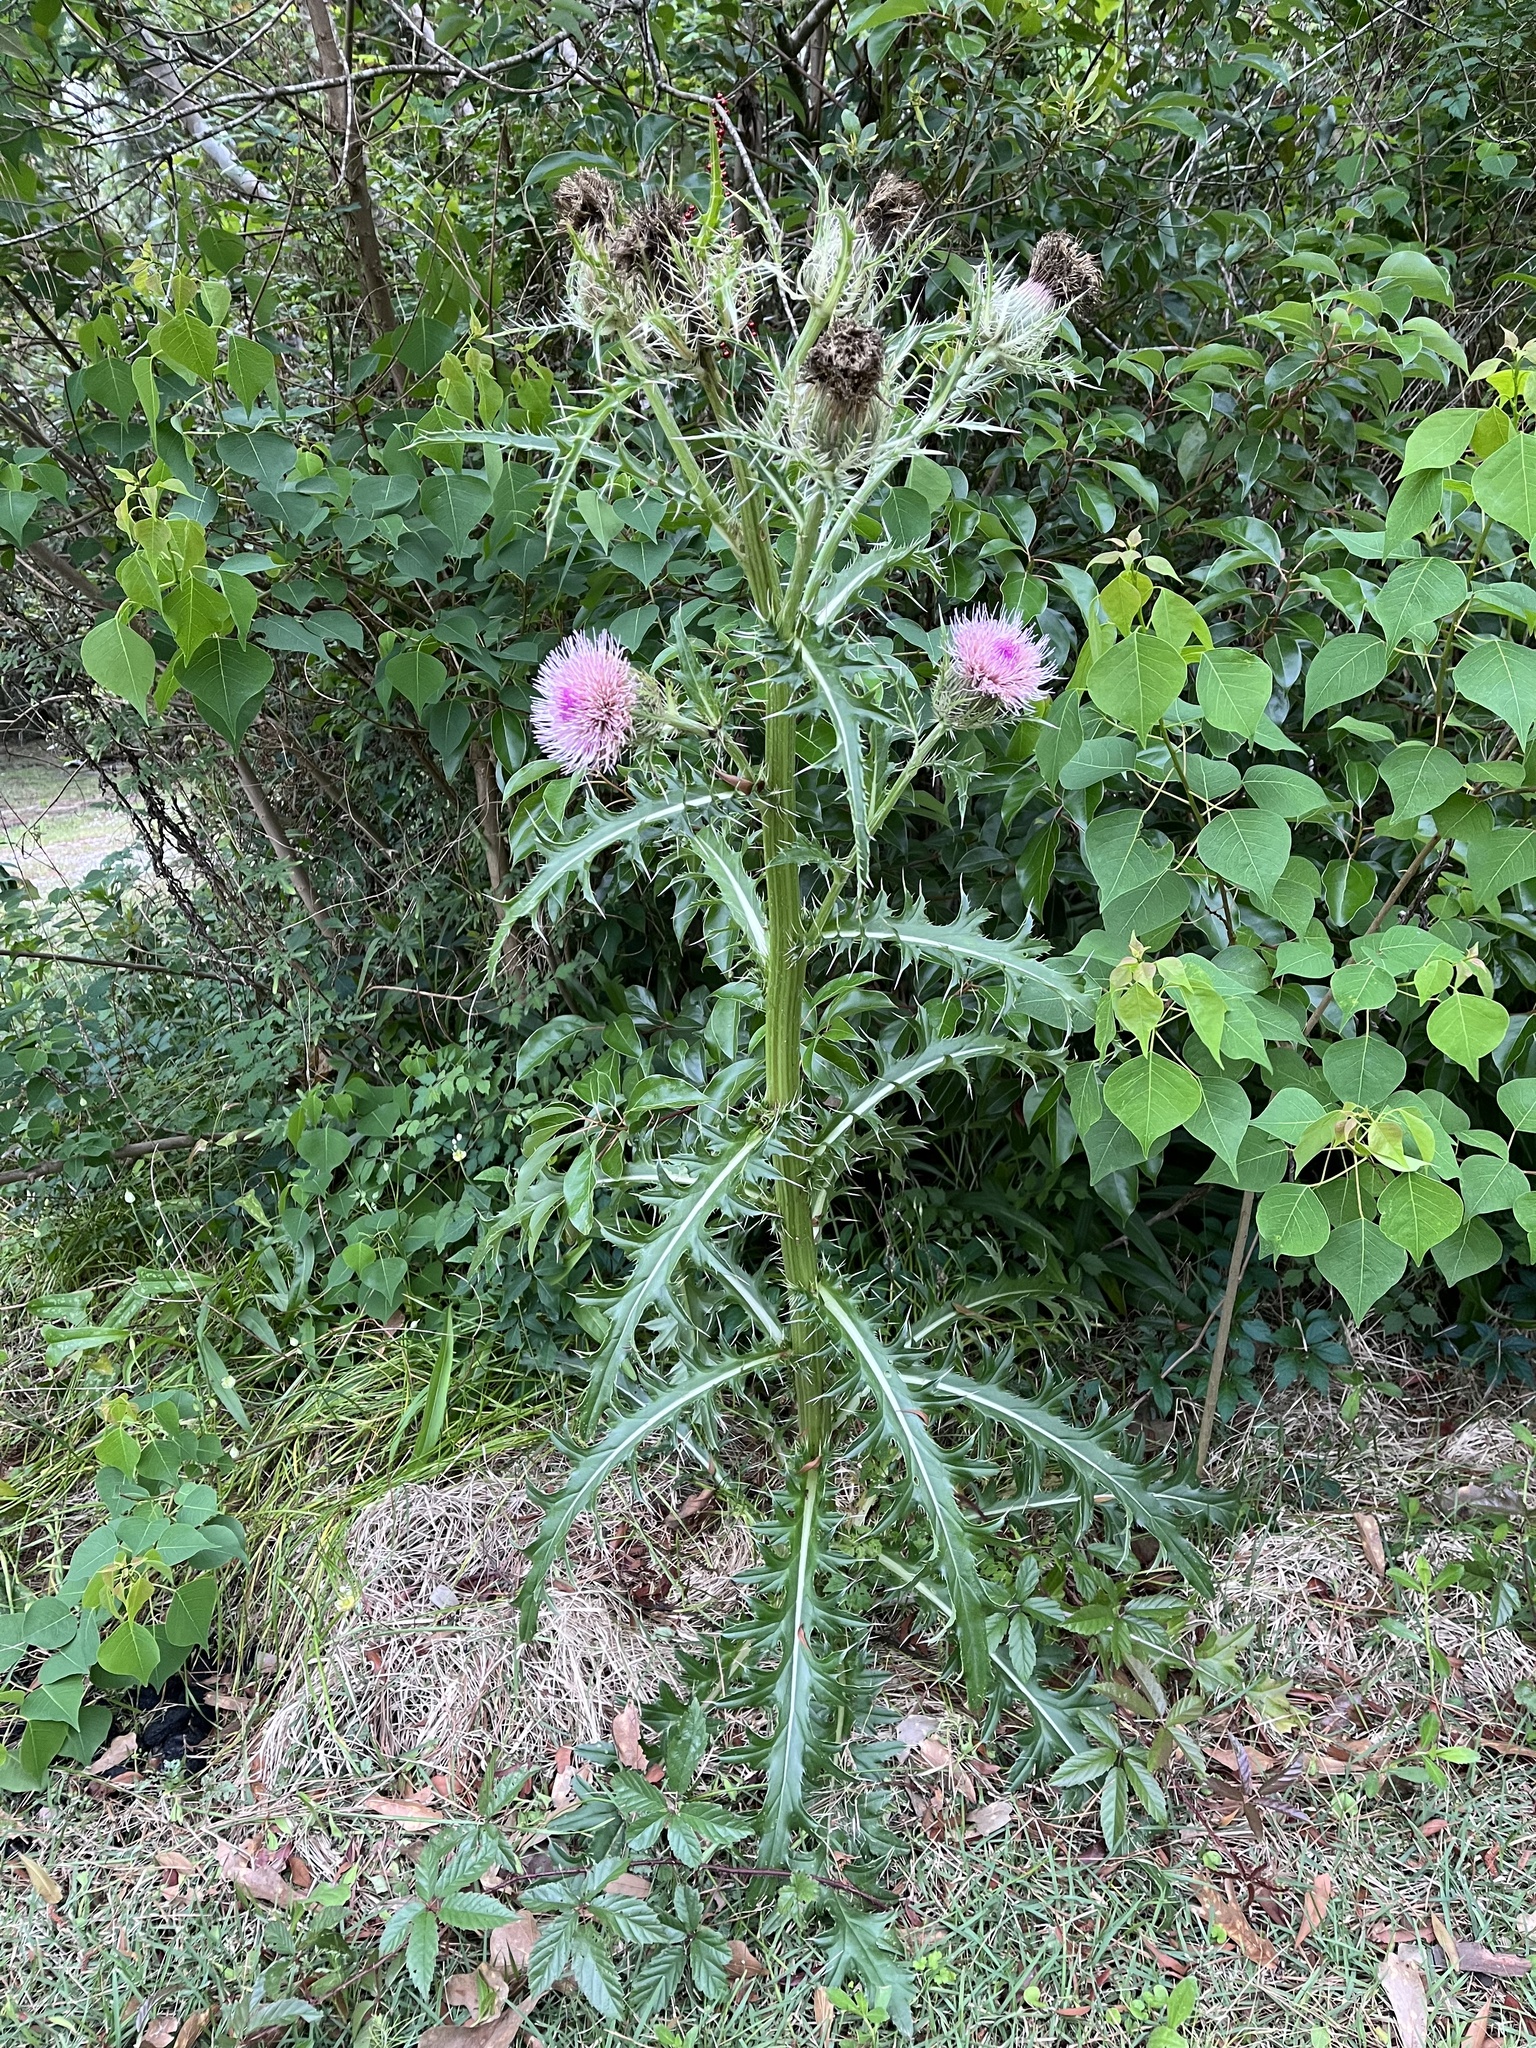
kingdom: Plantae
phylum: Tracheophyta
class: Magnoliopsida
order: Asterales
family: Asteraceae
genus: Cirsium
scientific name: Cirsium horridulum
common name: Bristly thistle
